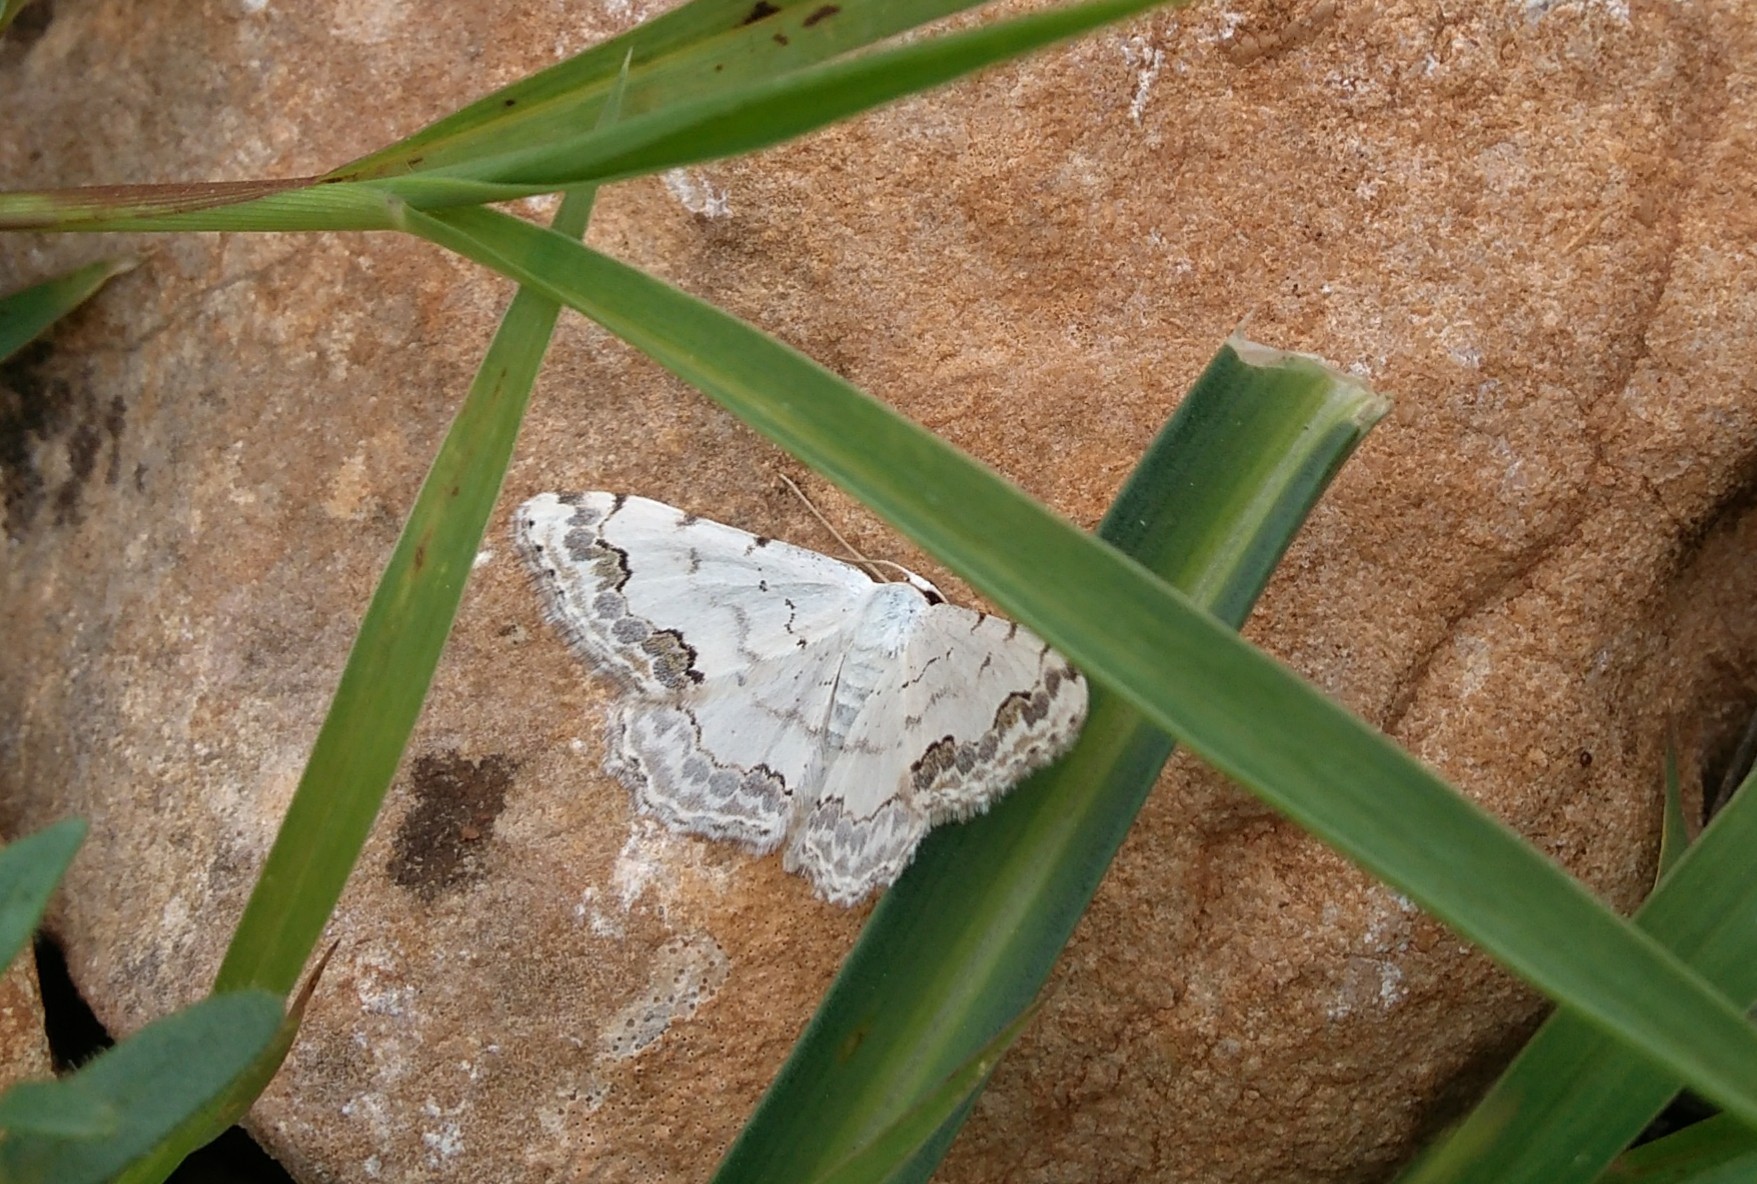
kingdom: Animalia
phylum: Arthropoda
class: Insecta
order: Lepidoptera
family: Geometridae
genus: Scopula
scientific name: Scopula decorata
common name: Middle lace border
